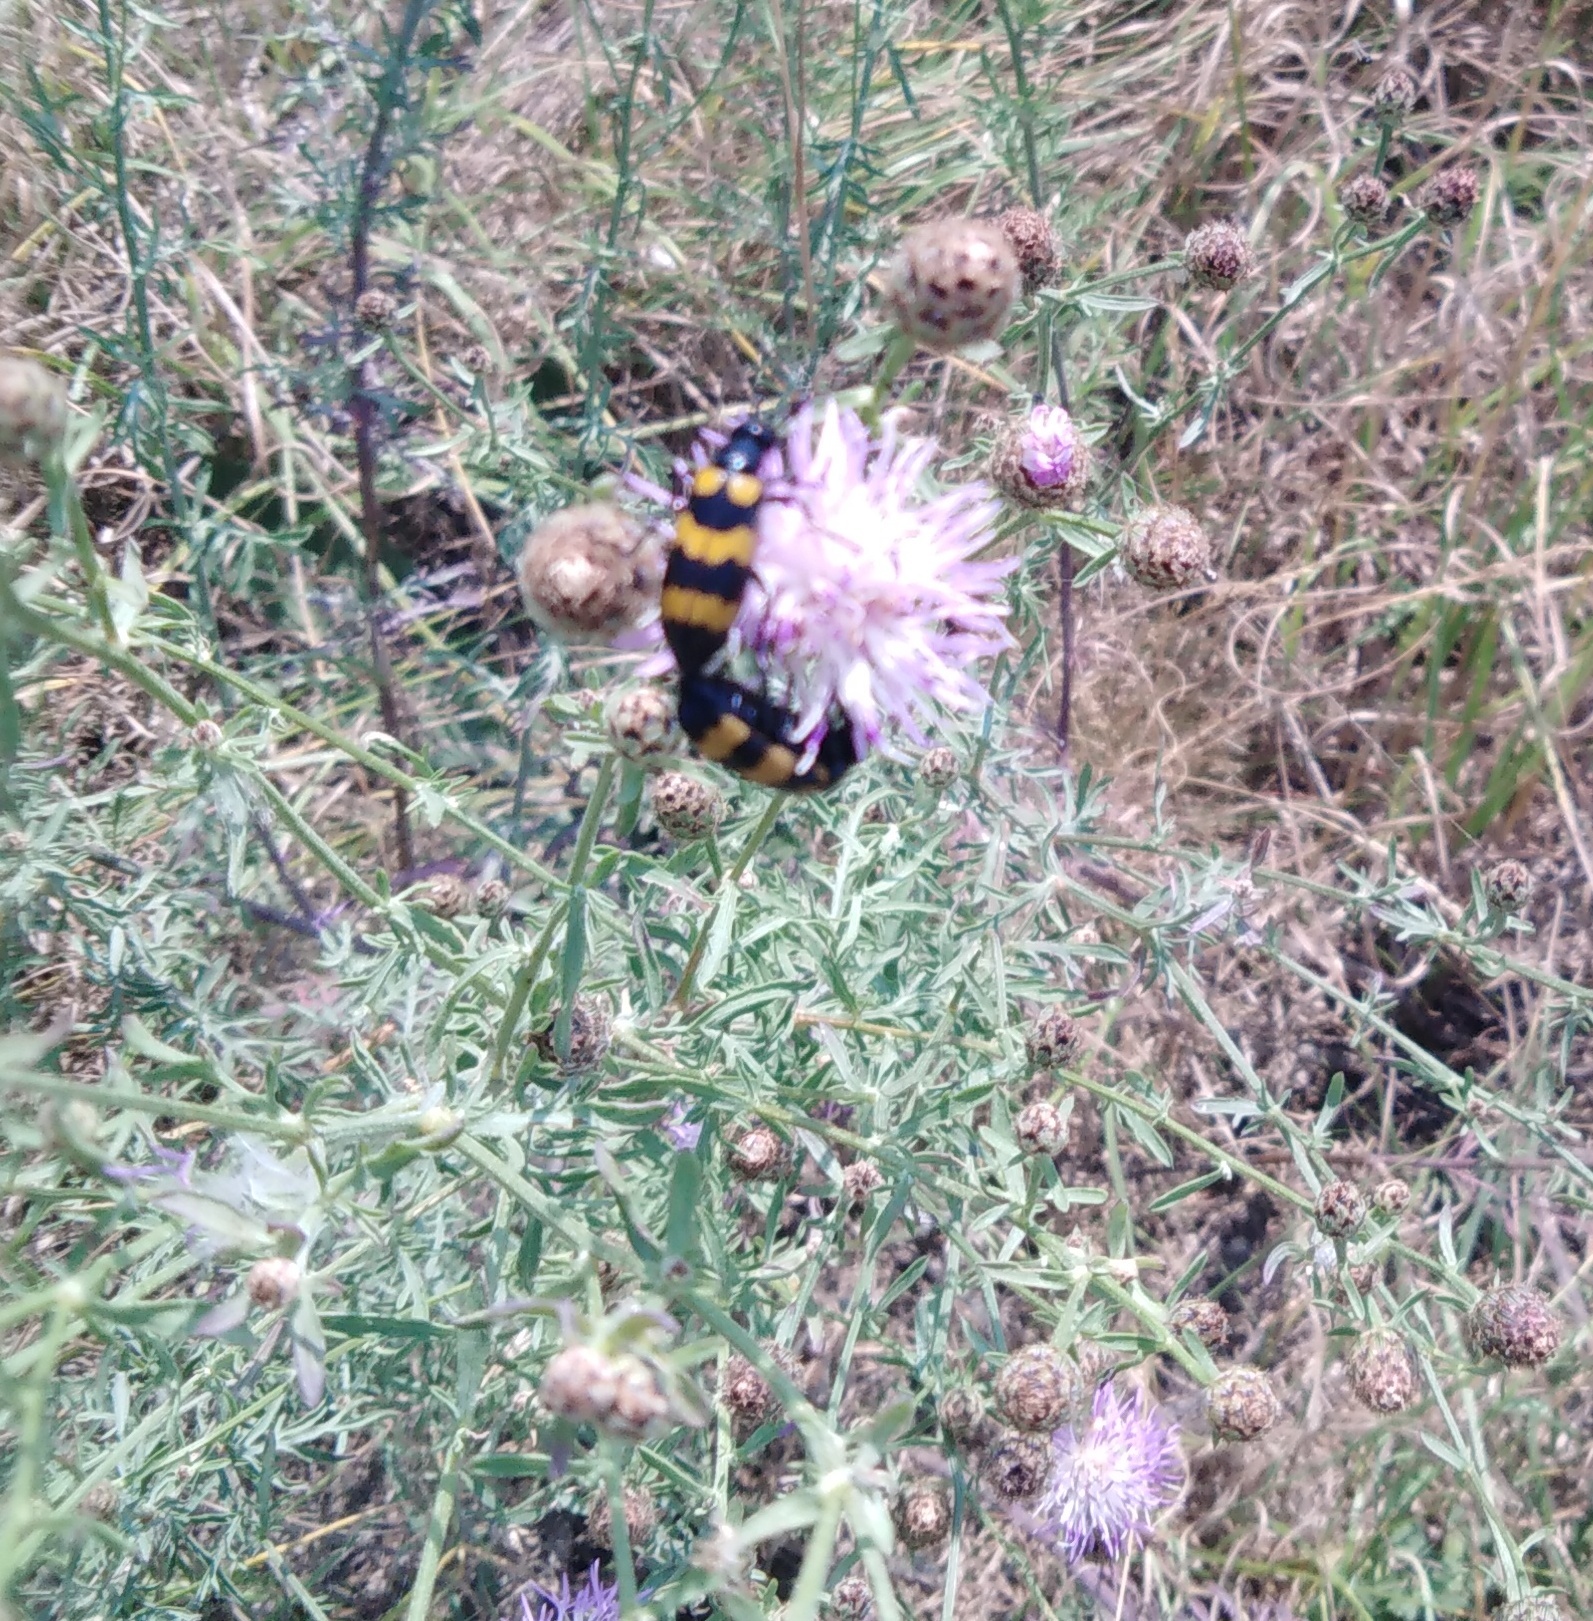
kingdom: Animalia
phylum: Arthropoda
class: Insecta
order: Coleoptera
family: Meloidae
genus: Mylabris
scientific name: Mylabris variabilis
